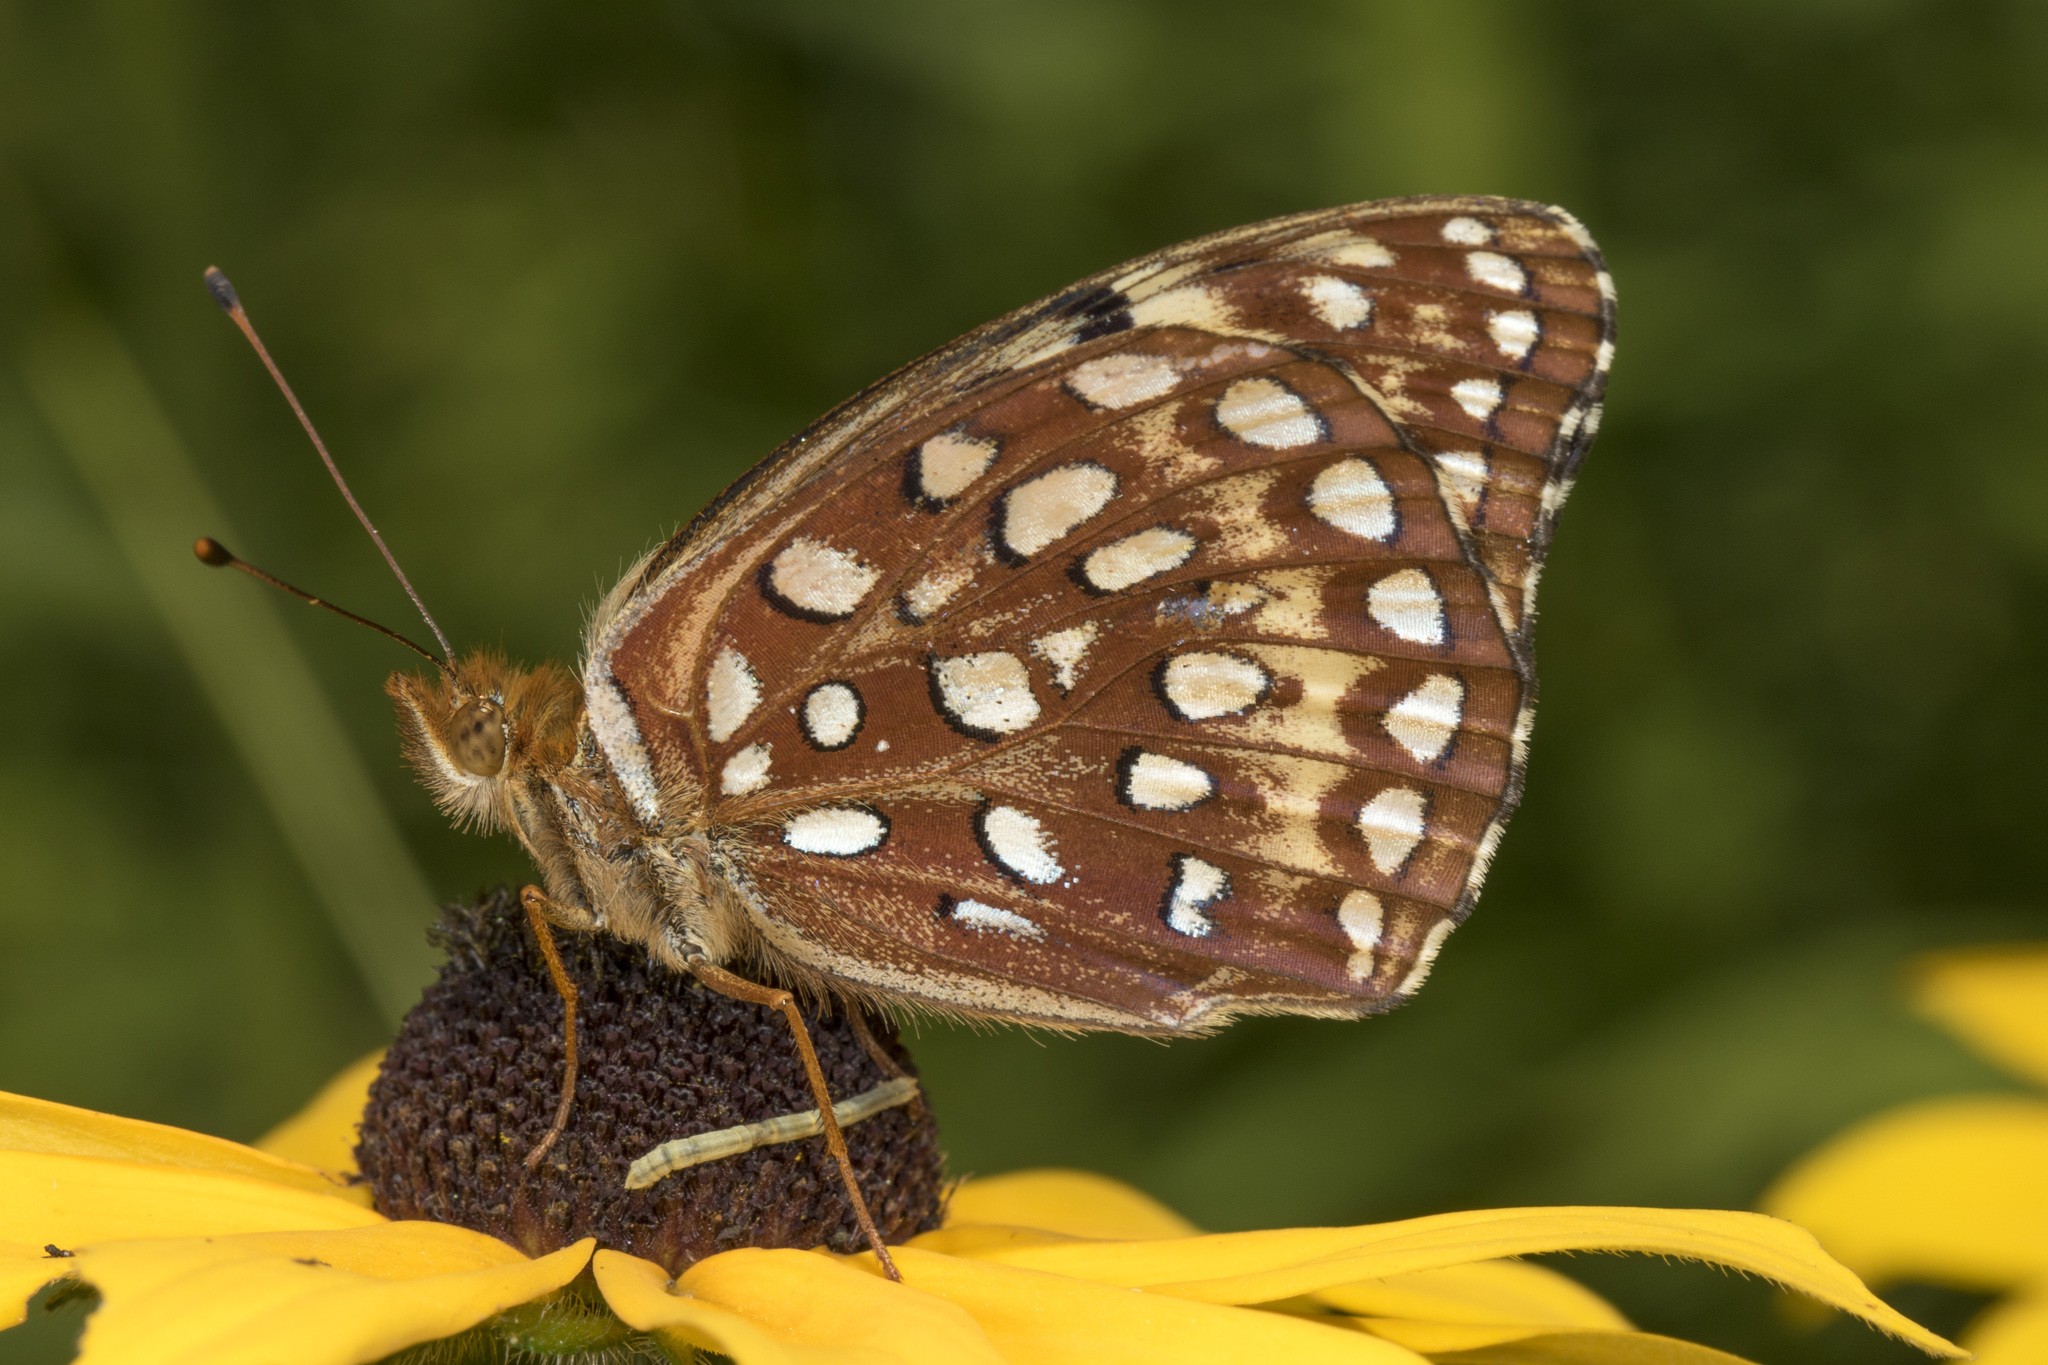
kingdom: Animalia
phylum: Arthropoda
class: Insecta
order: Lepidoptera
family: Nymphalidae
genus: Speyeria
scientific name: Speyeria aphrodite
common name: Aphrodite friitllary
